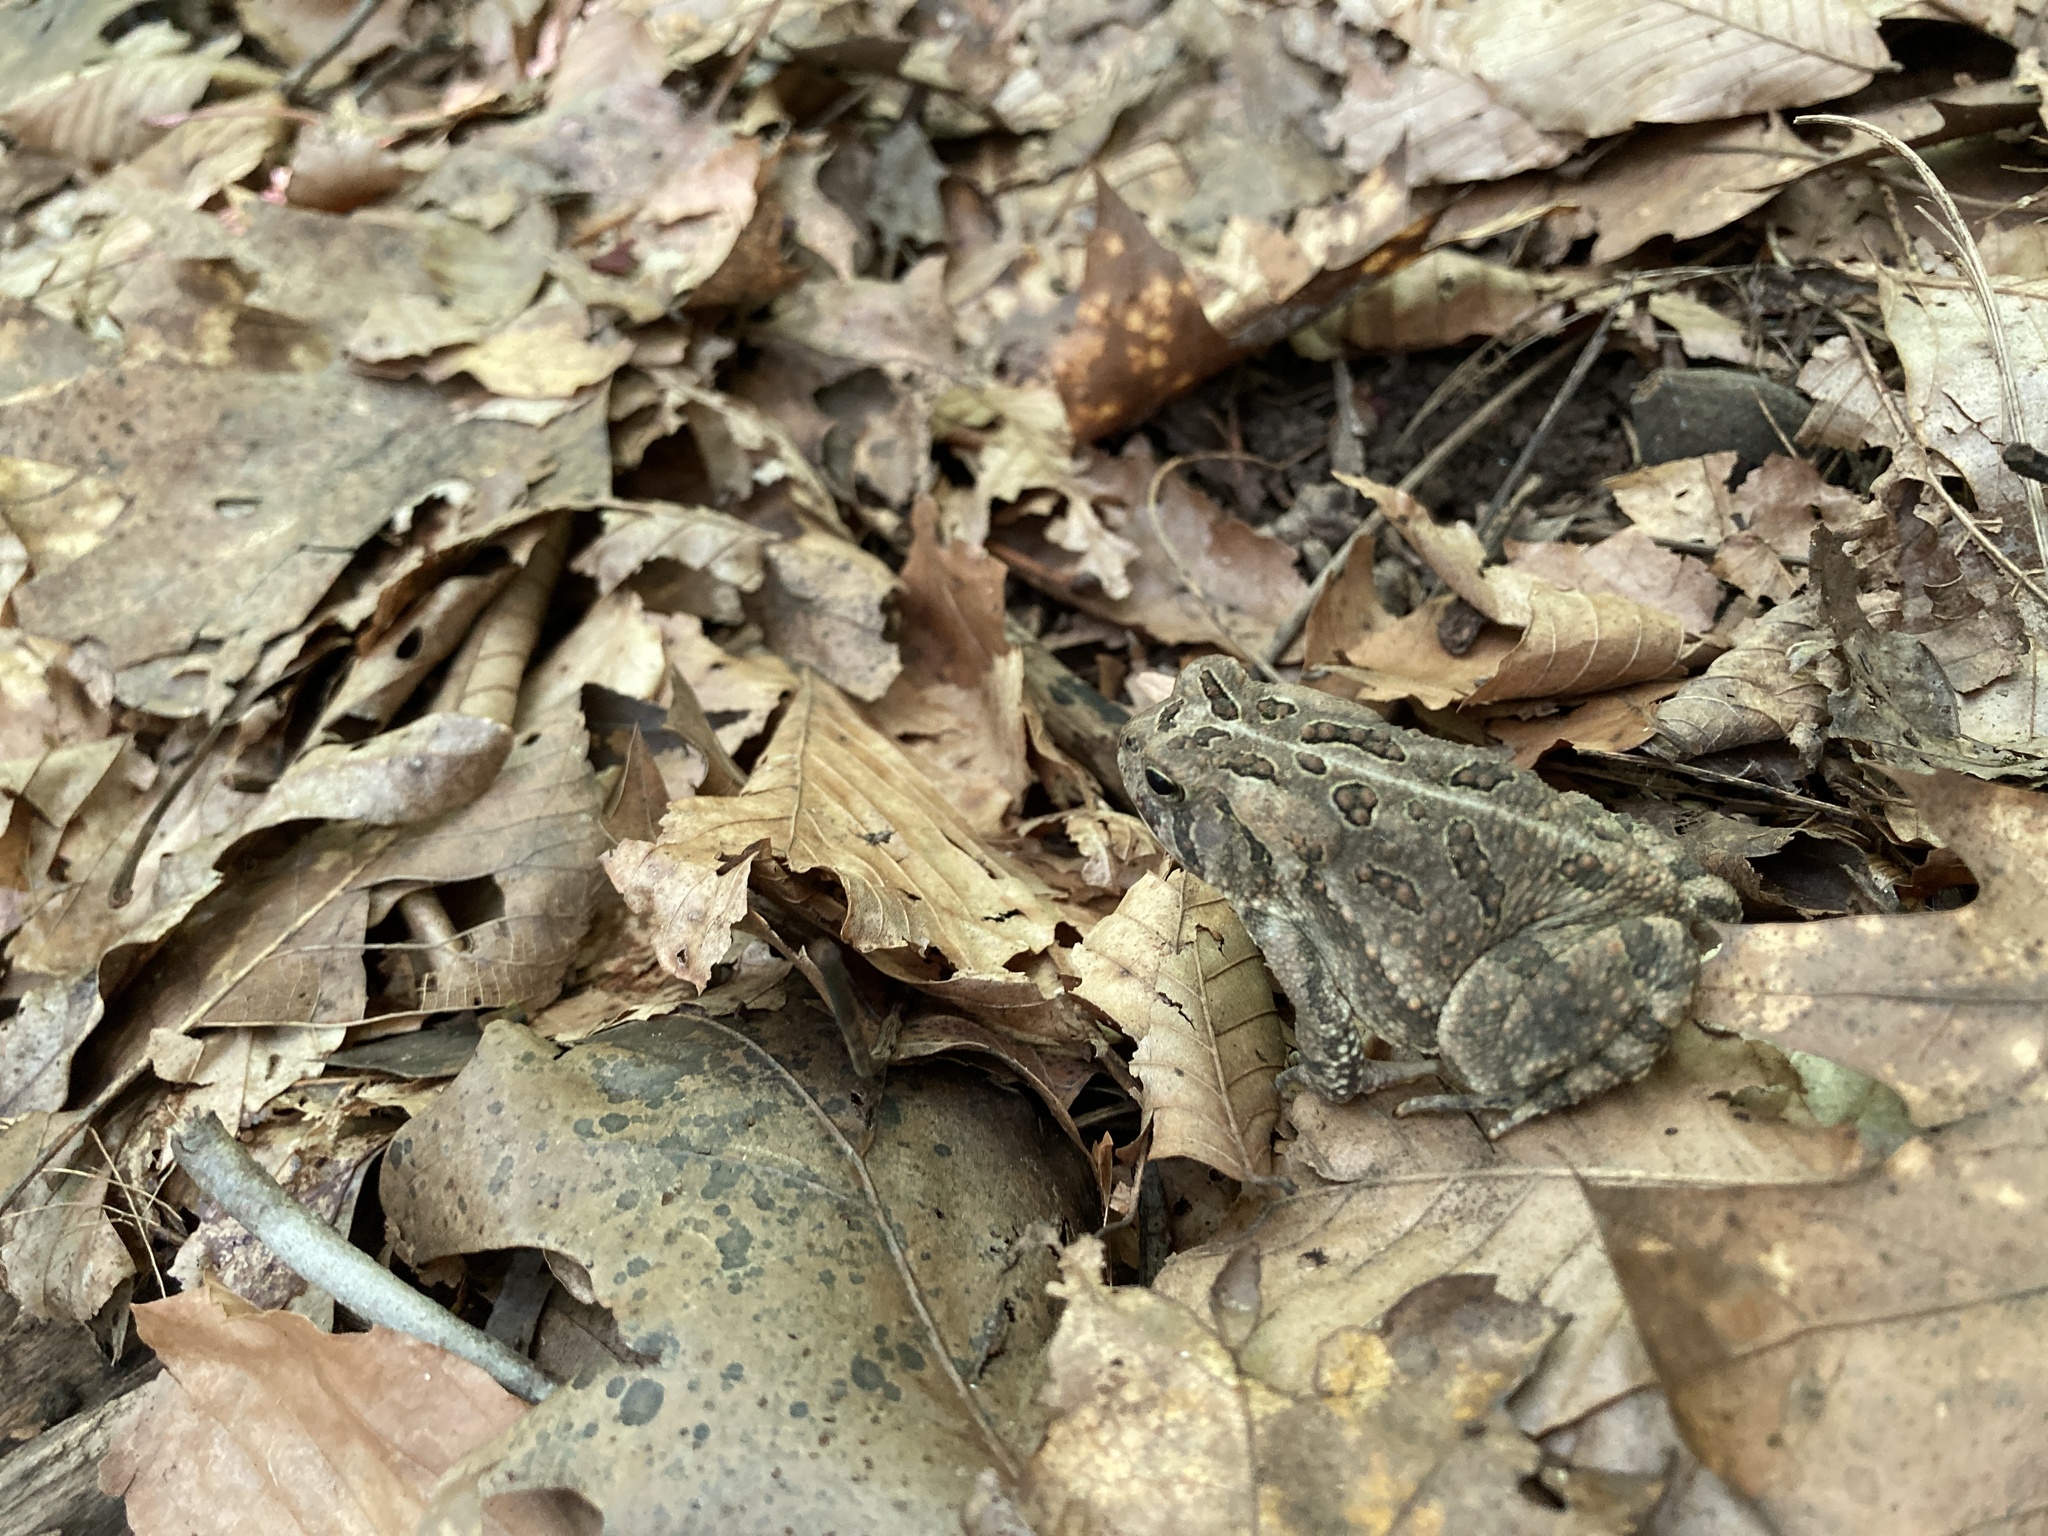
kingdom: Animalia
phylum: Chordata
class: Amphibia
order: Anura
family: Bufonidae
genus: Anaxyrus
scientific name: Anaxyrus fowleri
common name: Fowler's toad
